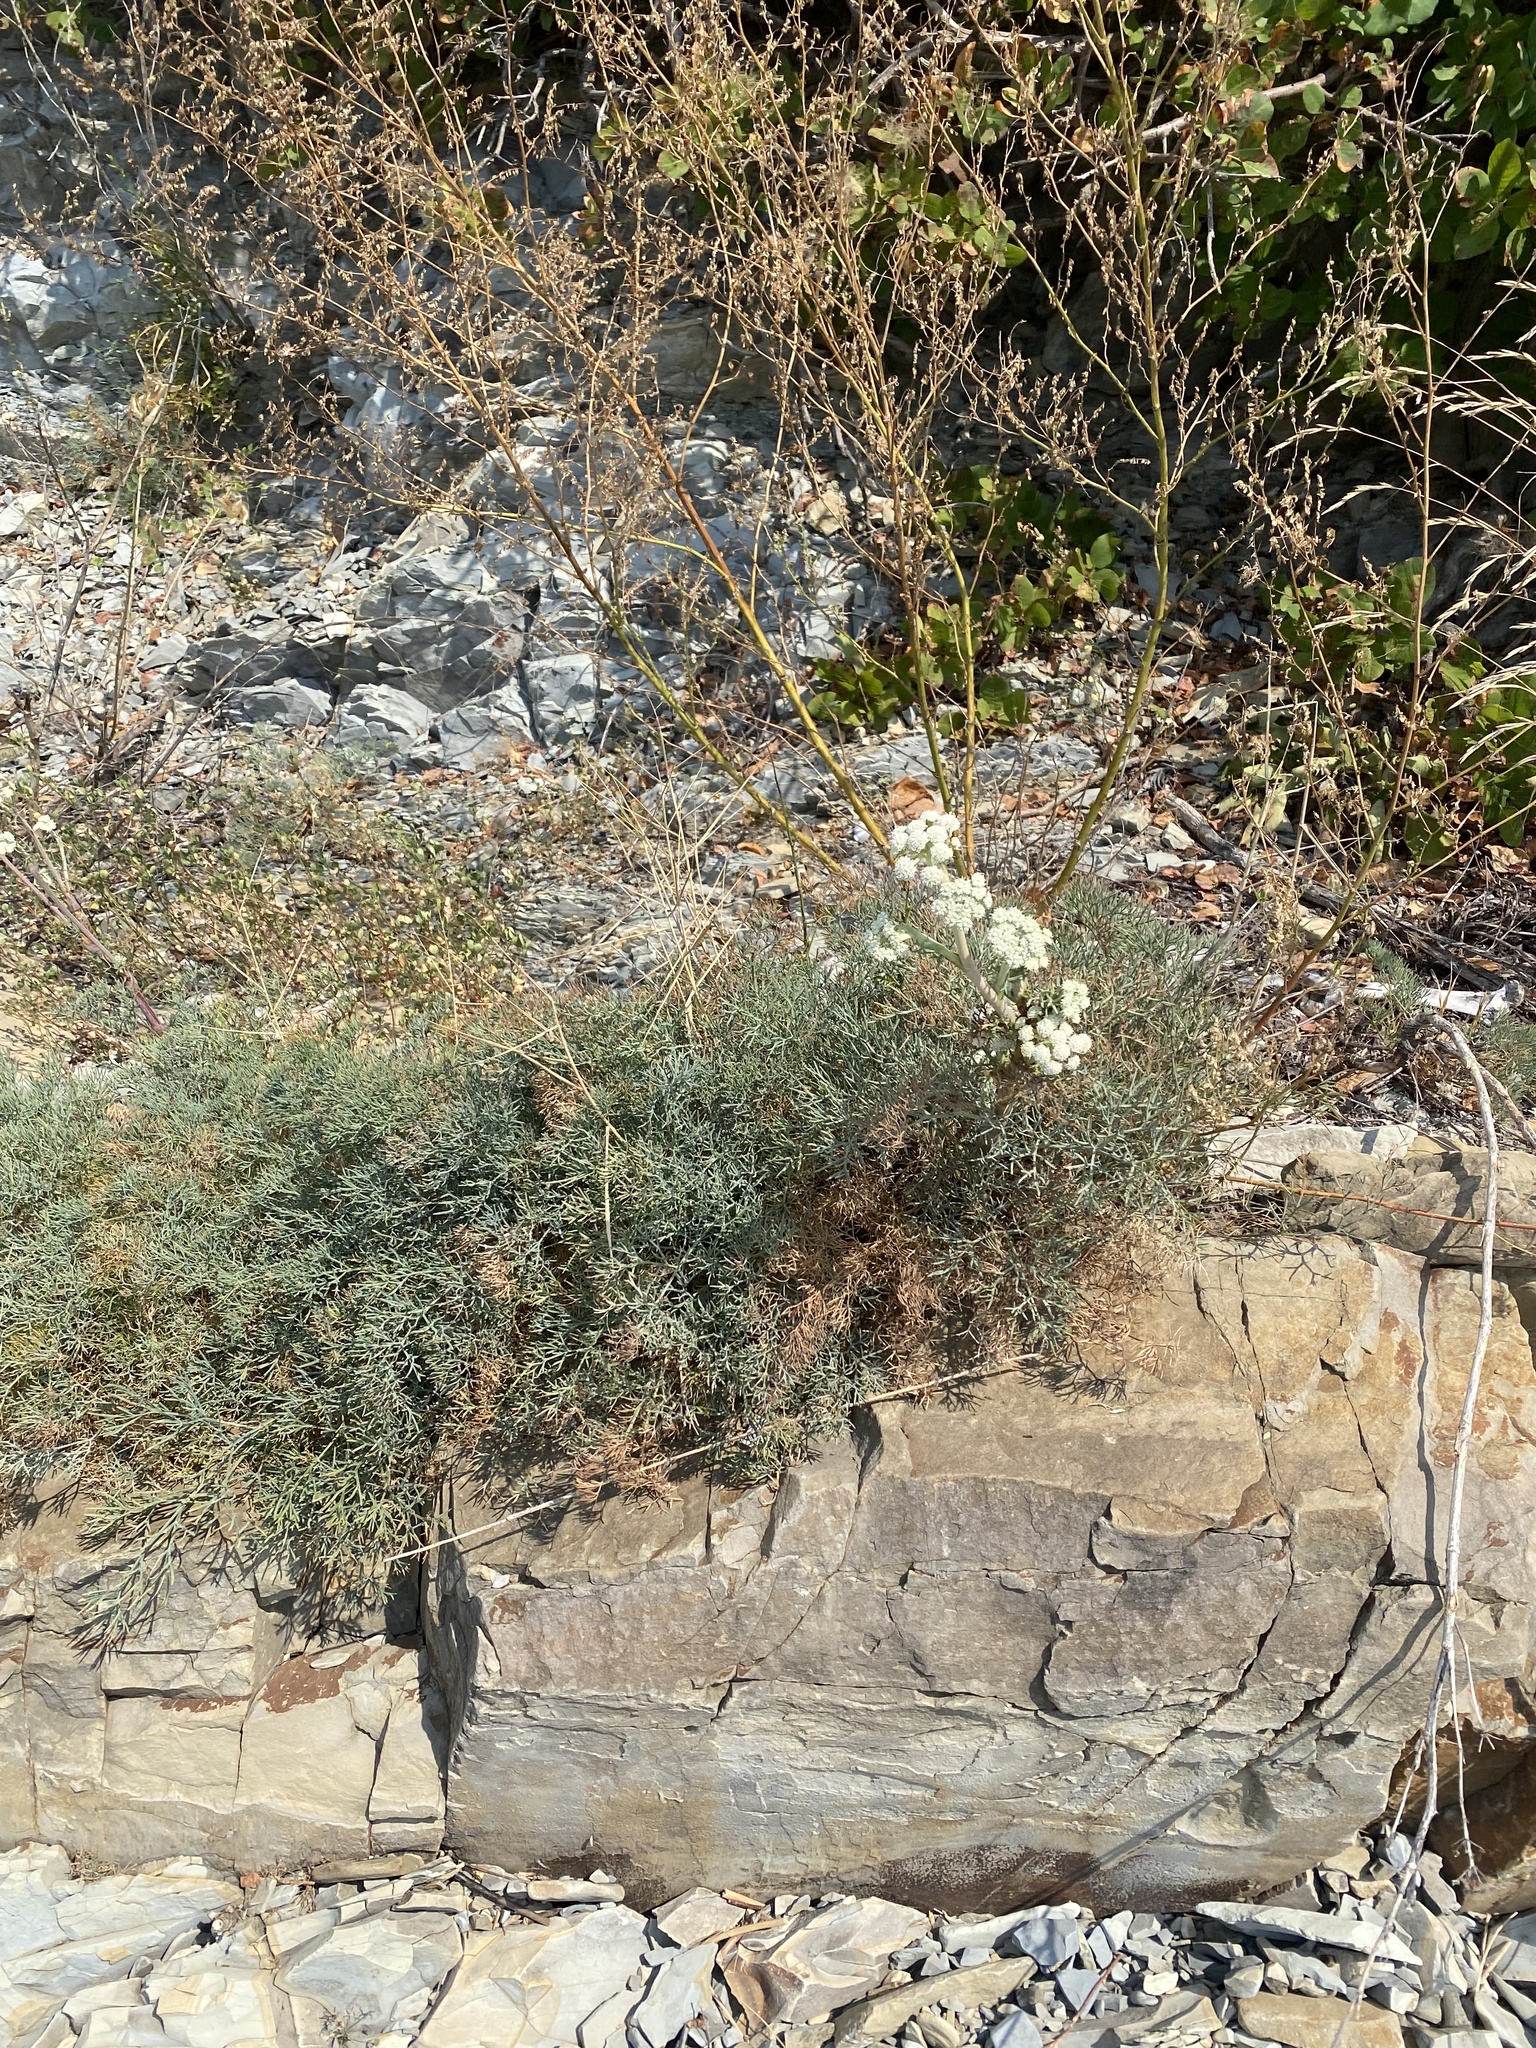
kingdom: Plantae
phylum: Tracheophyta
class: Magnoliopsida
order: Apiales
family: Apiaceae
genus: Seseli
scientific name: Seseli ponticum
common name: Pontic seseli
